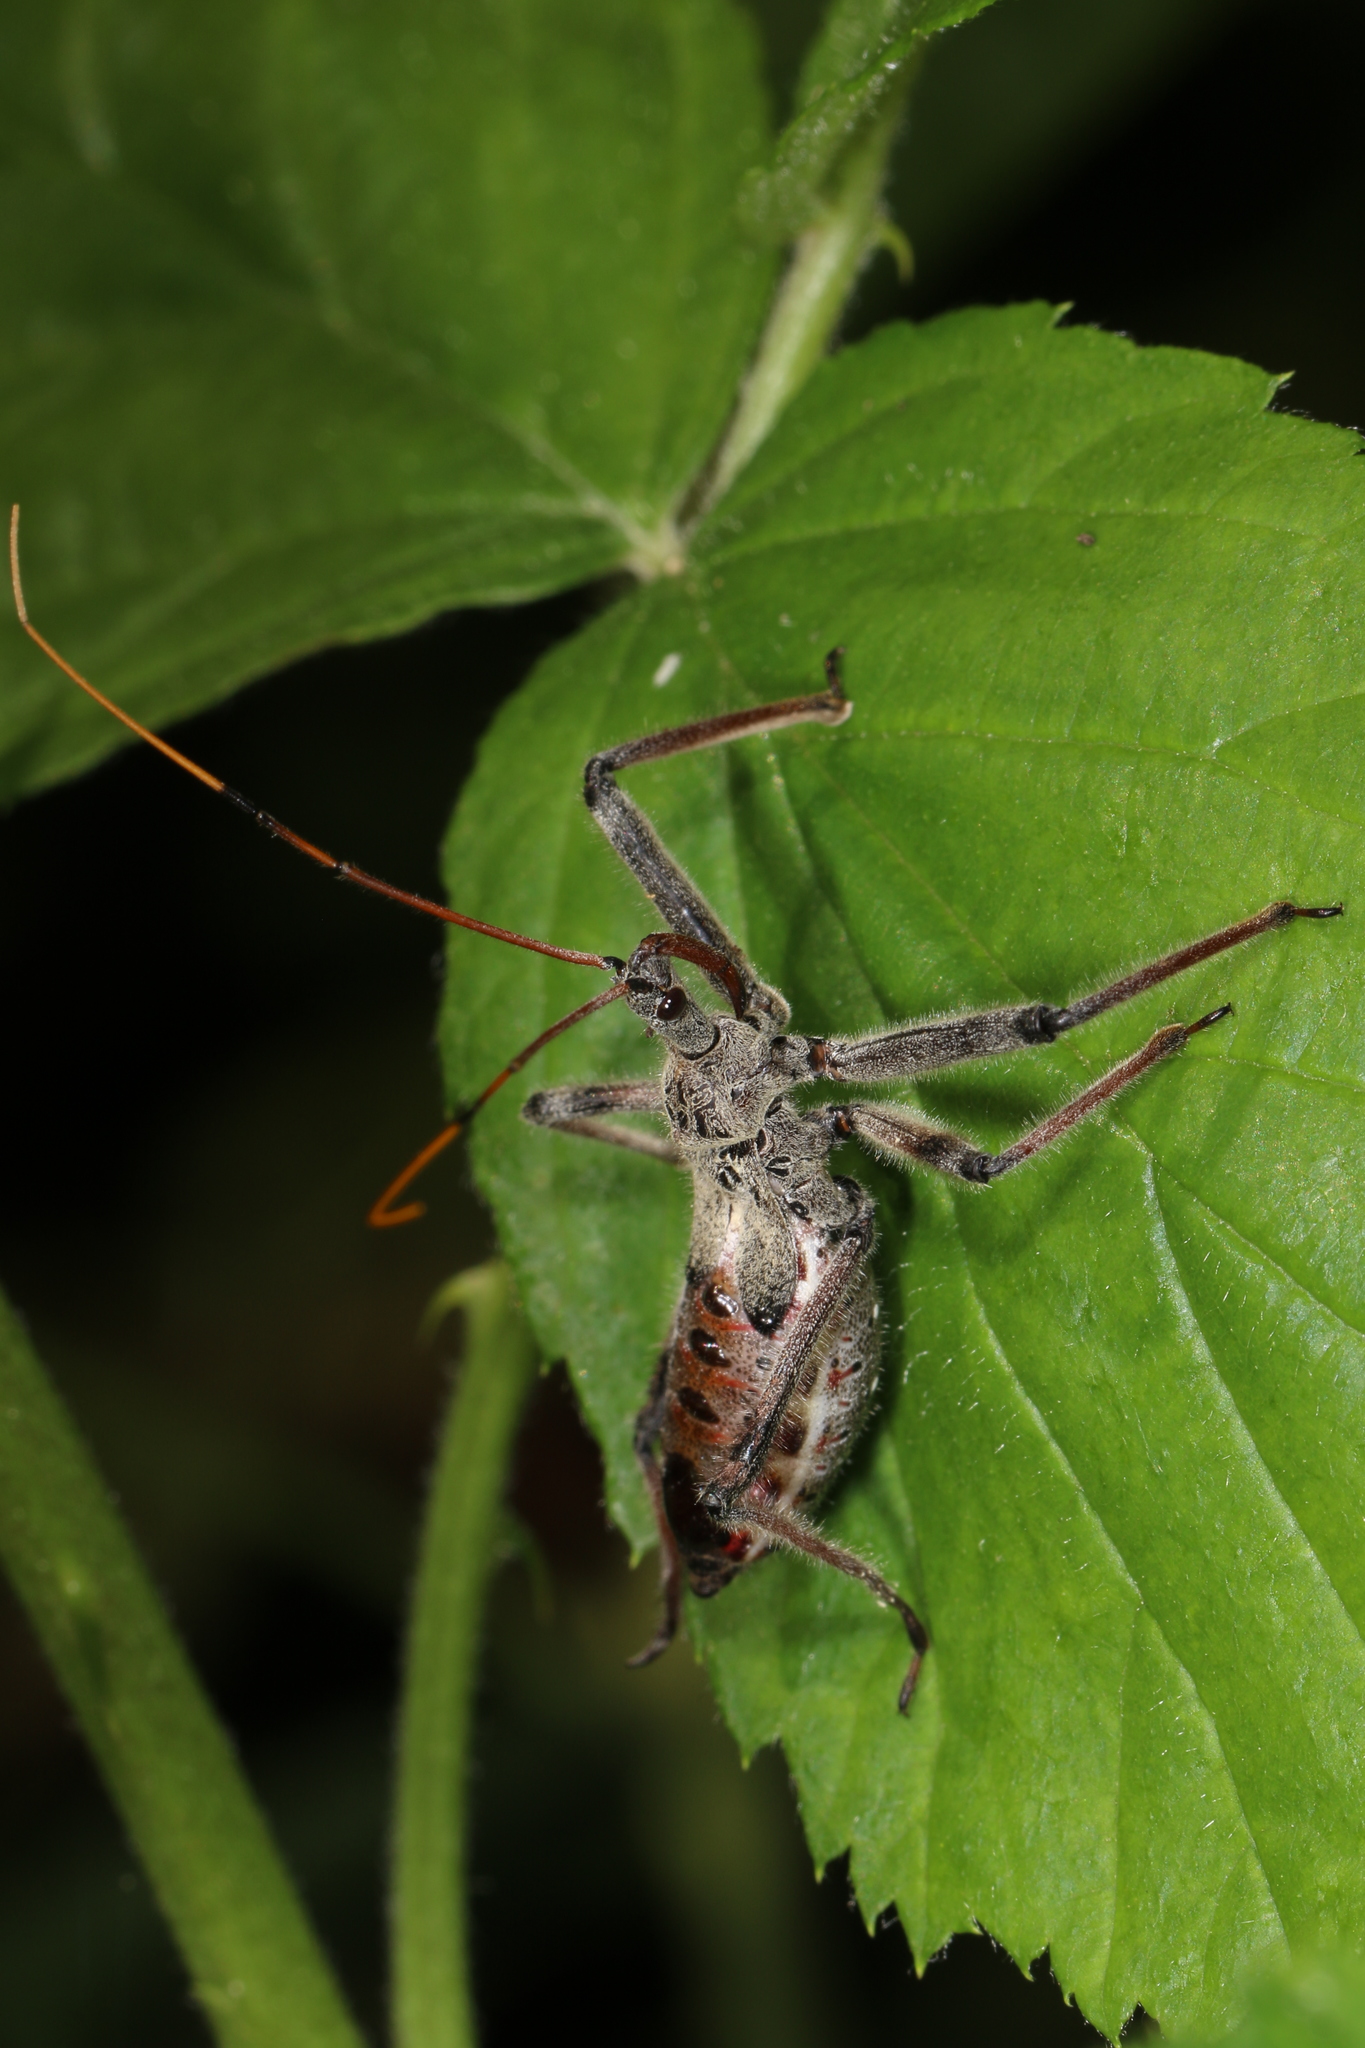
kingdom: Animalia
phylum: Arthropoda
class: Insecta
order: Hemiptera
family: Reduviidae
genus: Arilus
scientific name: Arilus cristatus
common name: North american wheel bug
